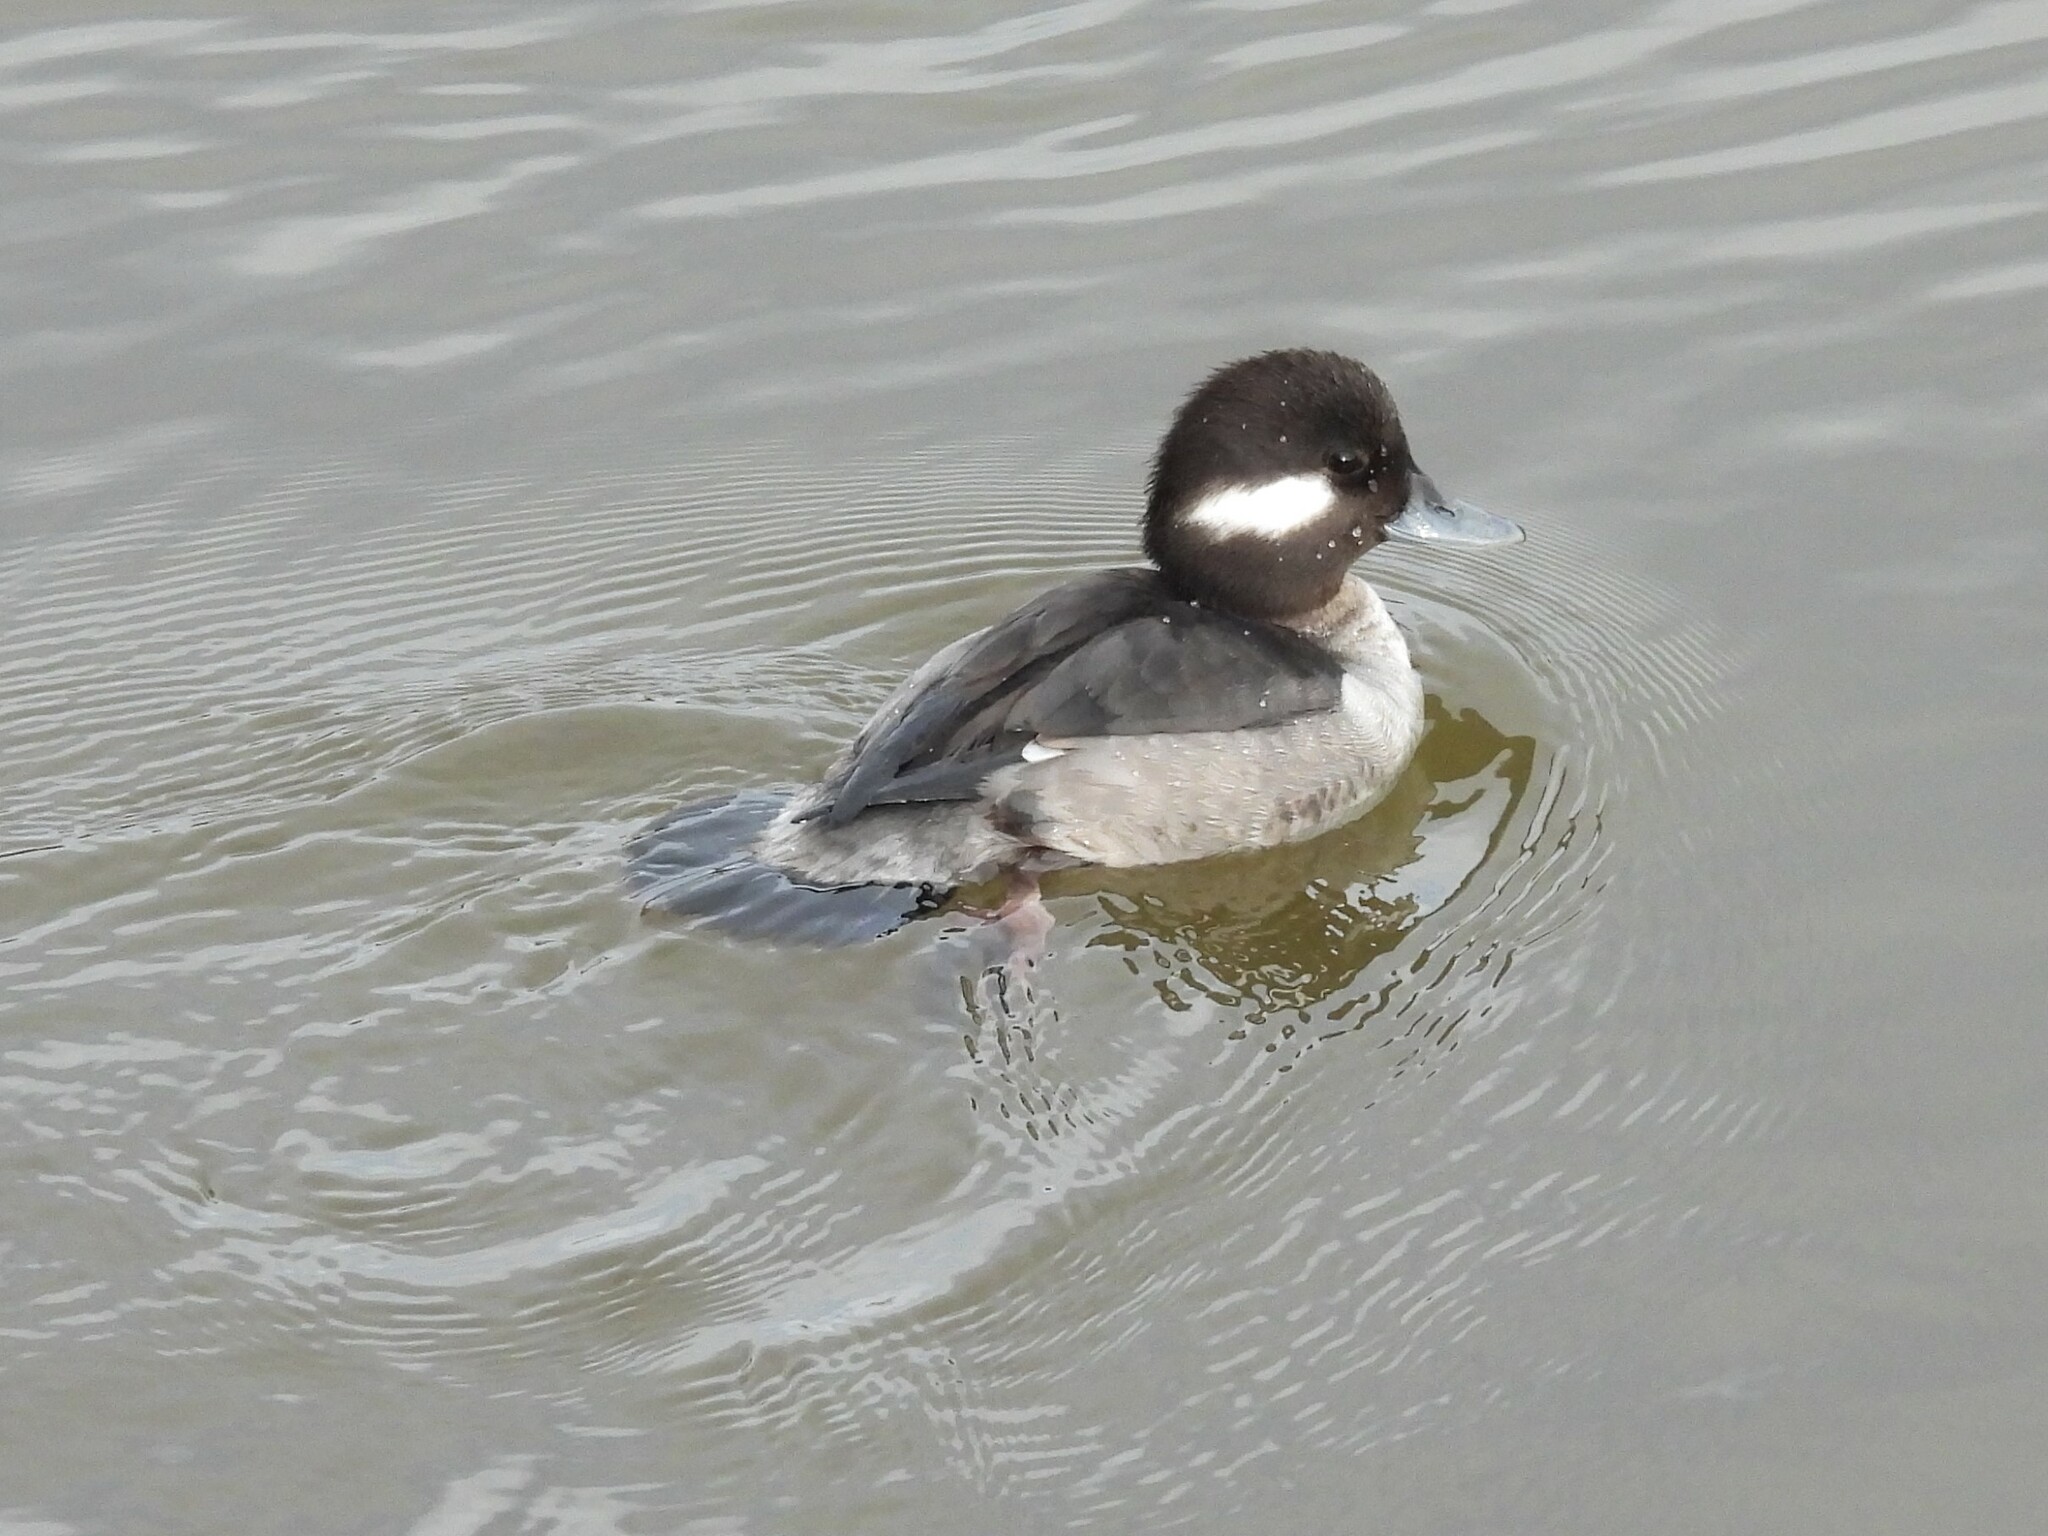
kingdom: Animalia
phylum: Chordata
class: Aves
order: Anseriformes
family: Anatidae
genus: Bucephala
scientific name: Bucephala albeola
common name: Bufflehead
